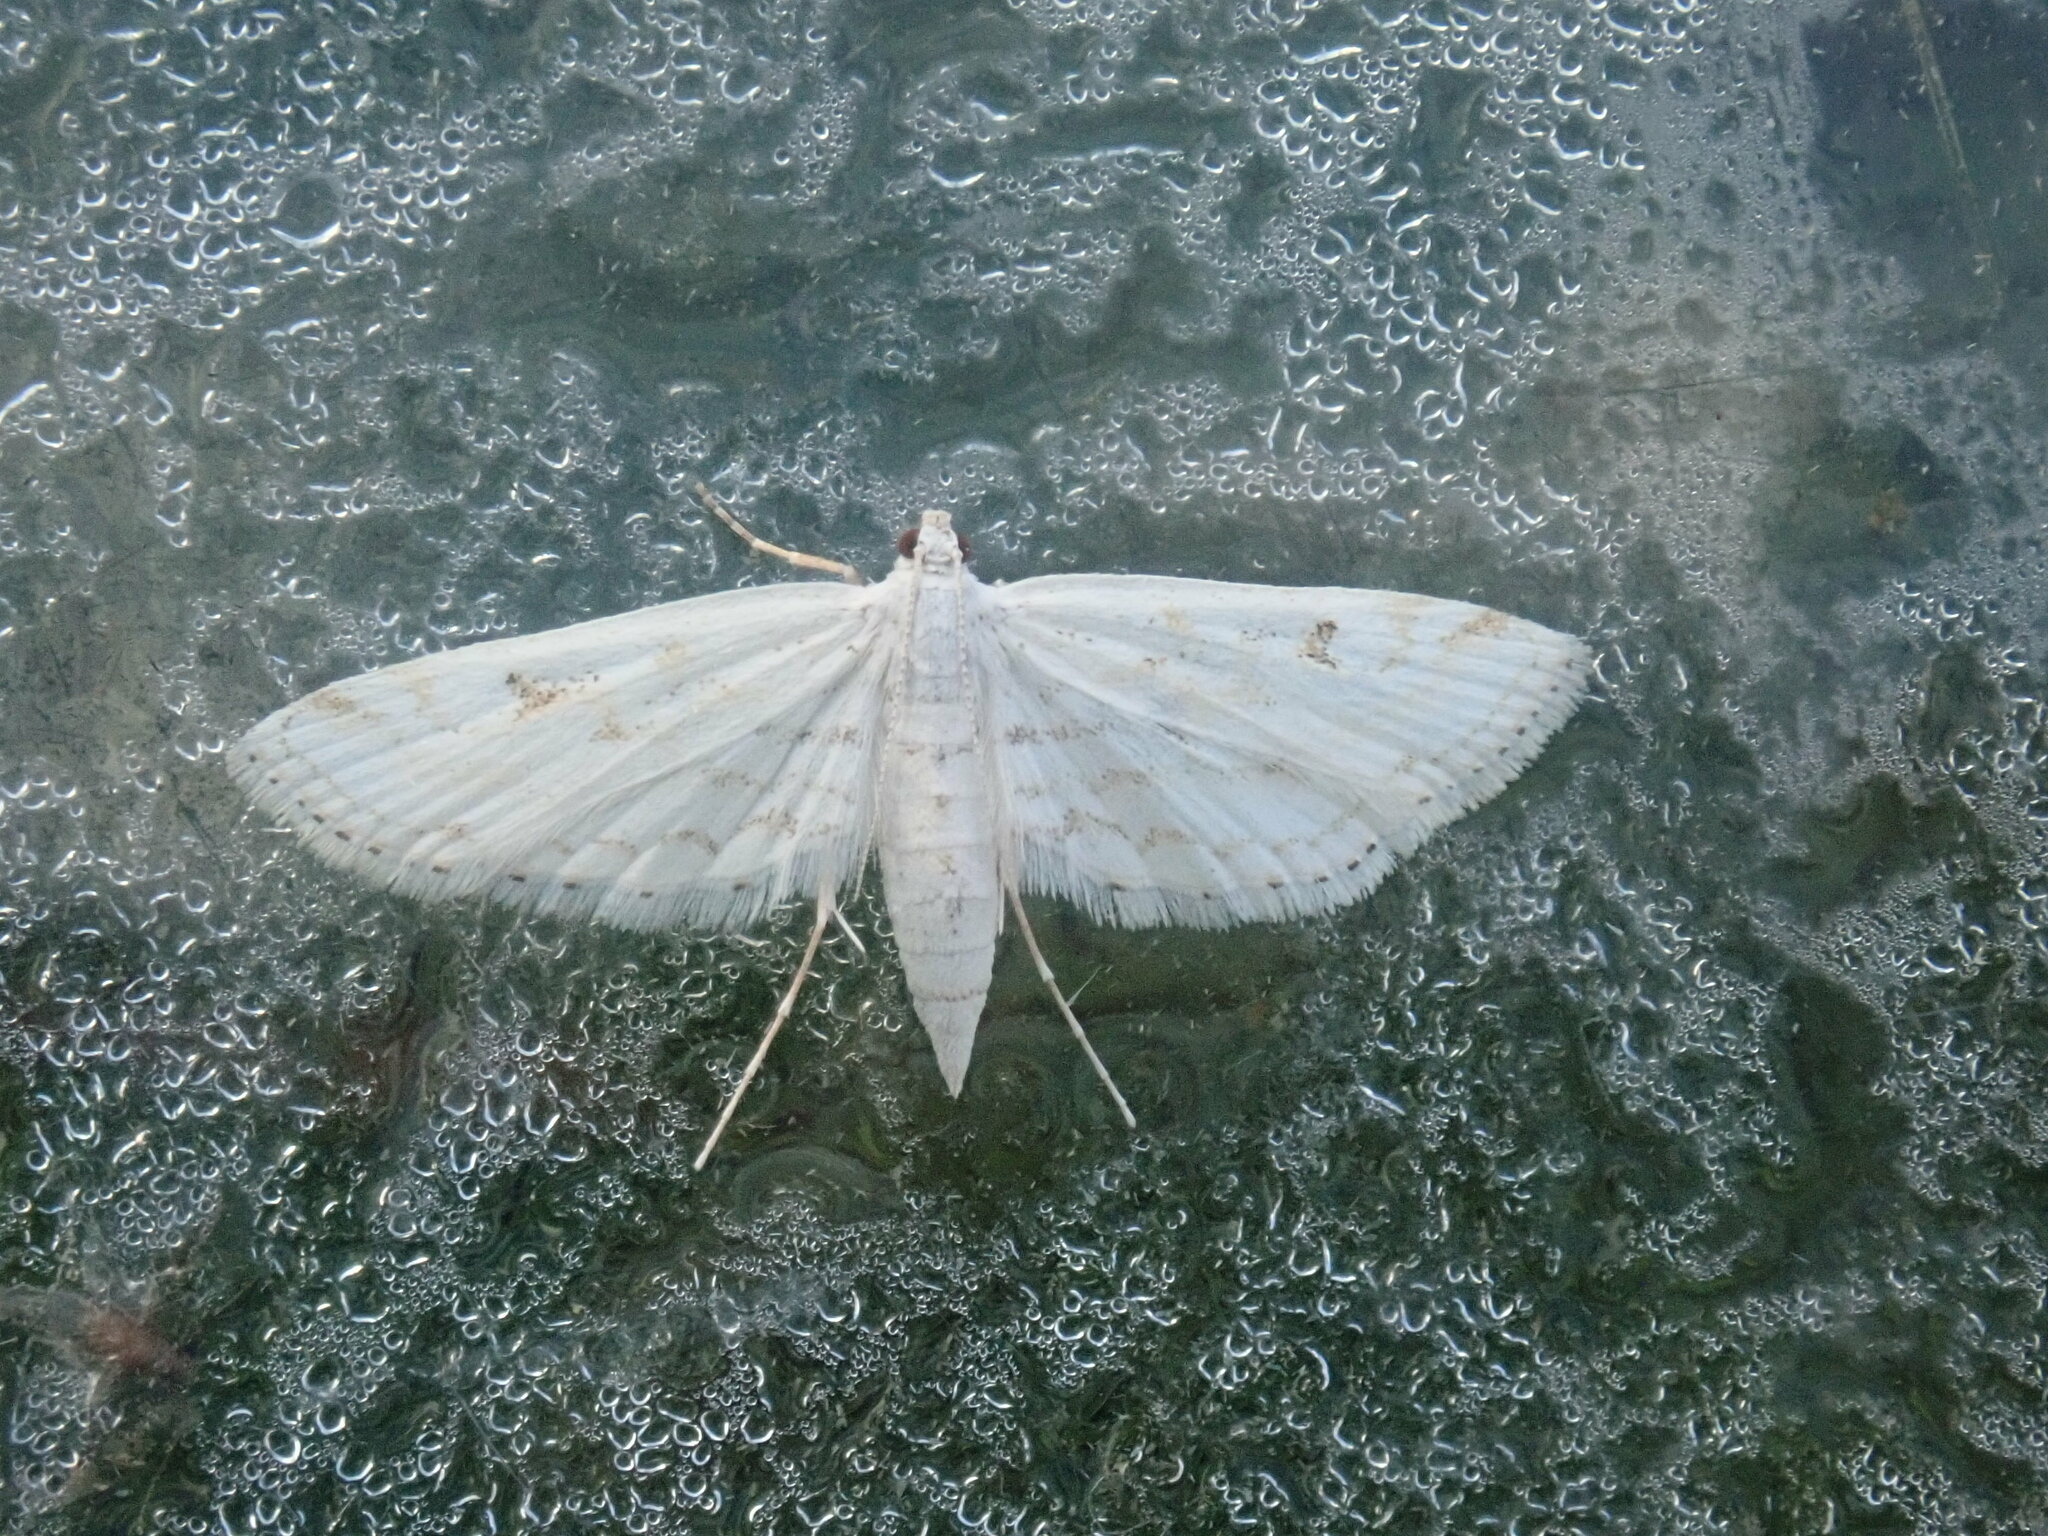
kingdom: Animalia
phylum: Arthropoda
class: Insecta
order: Lepidoptera
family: Crambidae
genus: Parapoynx
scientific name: Parapoynx allionealis
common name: Bladderwort casemaker
